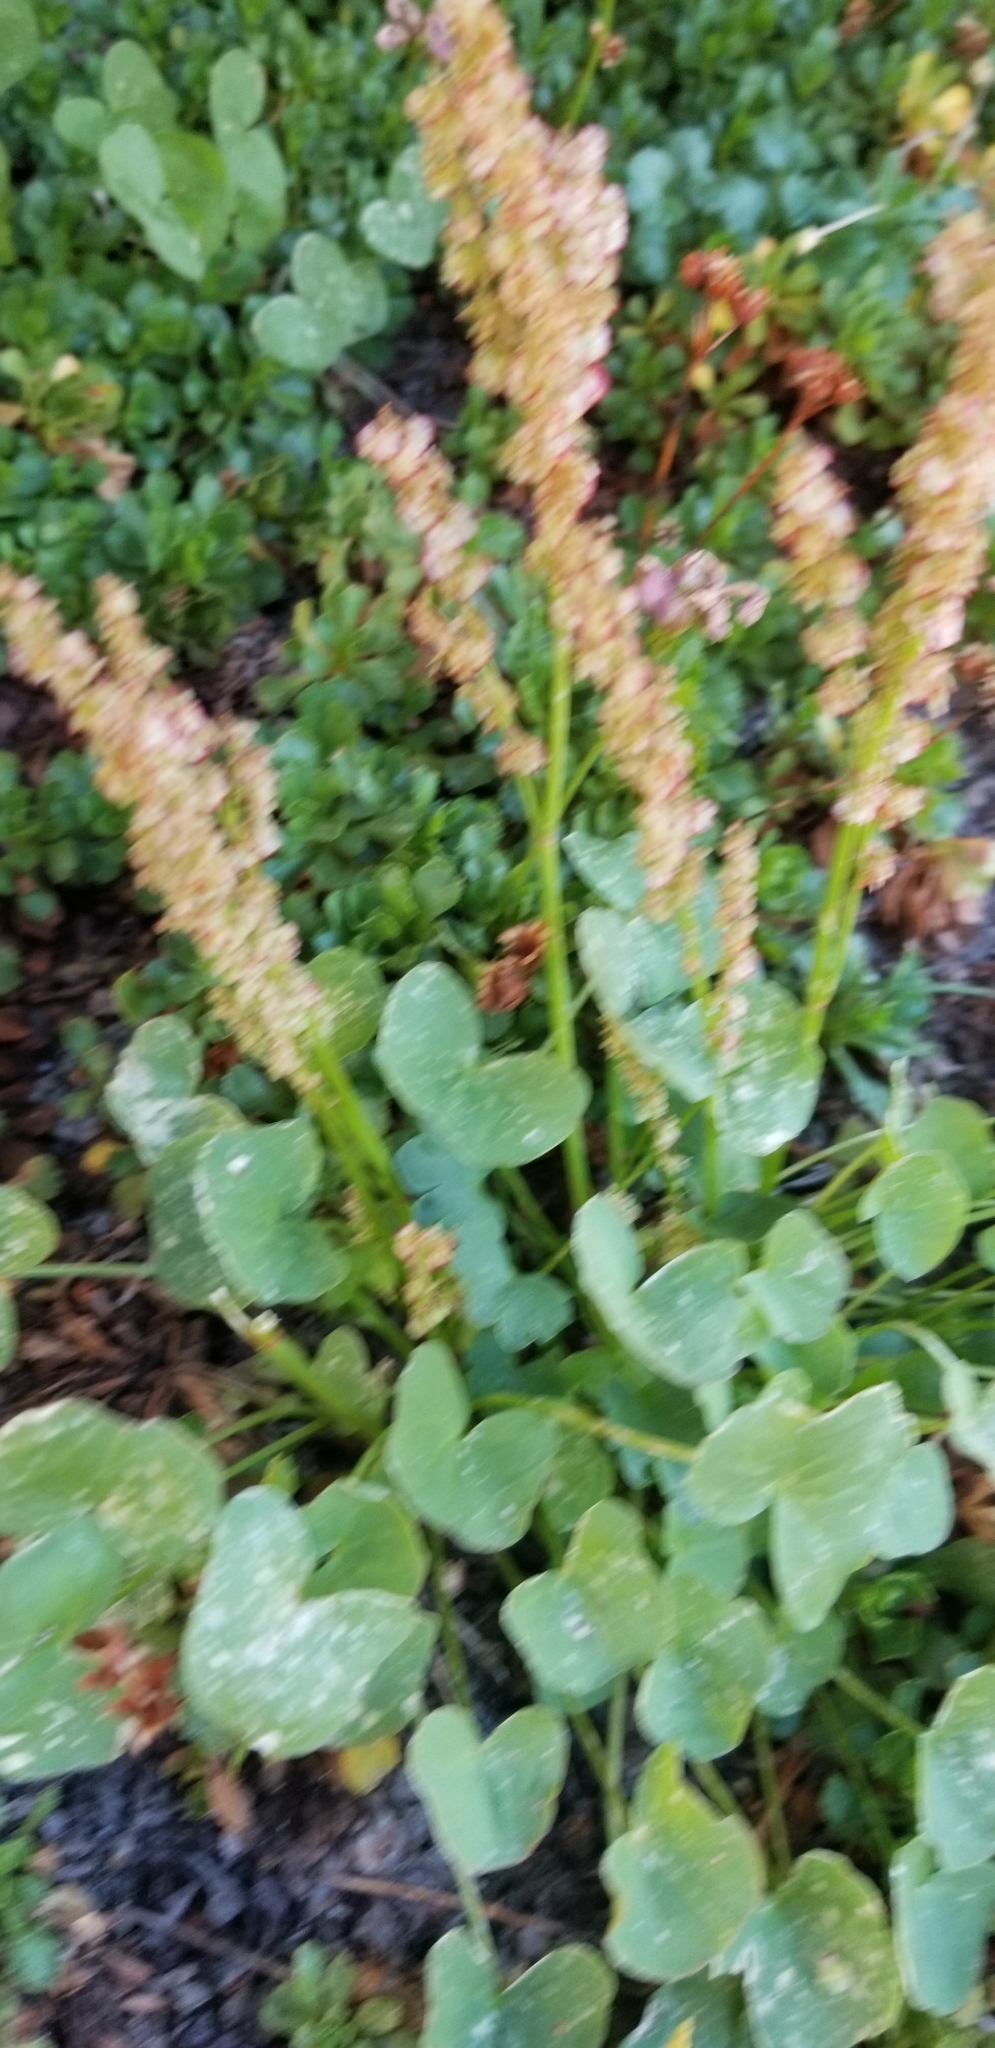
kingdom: Plantae
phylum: Tracheophyta
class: Magnoliopsida
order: Caryophyllales
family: Polygonaceae
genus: Oxyria
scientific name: Oxyria digyna
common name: Alpine mountain-sorrel
